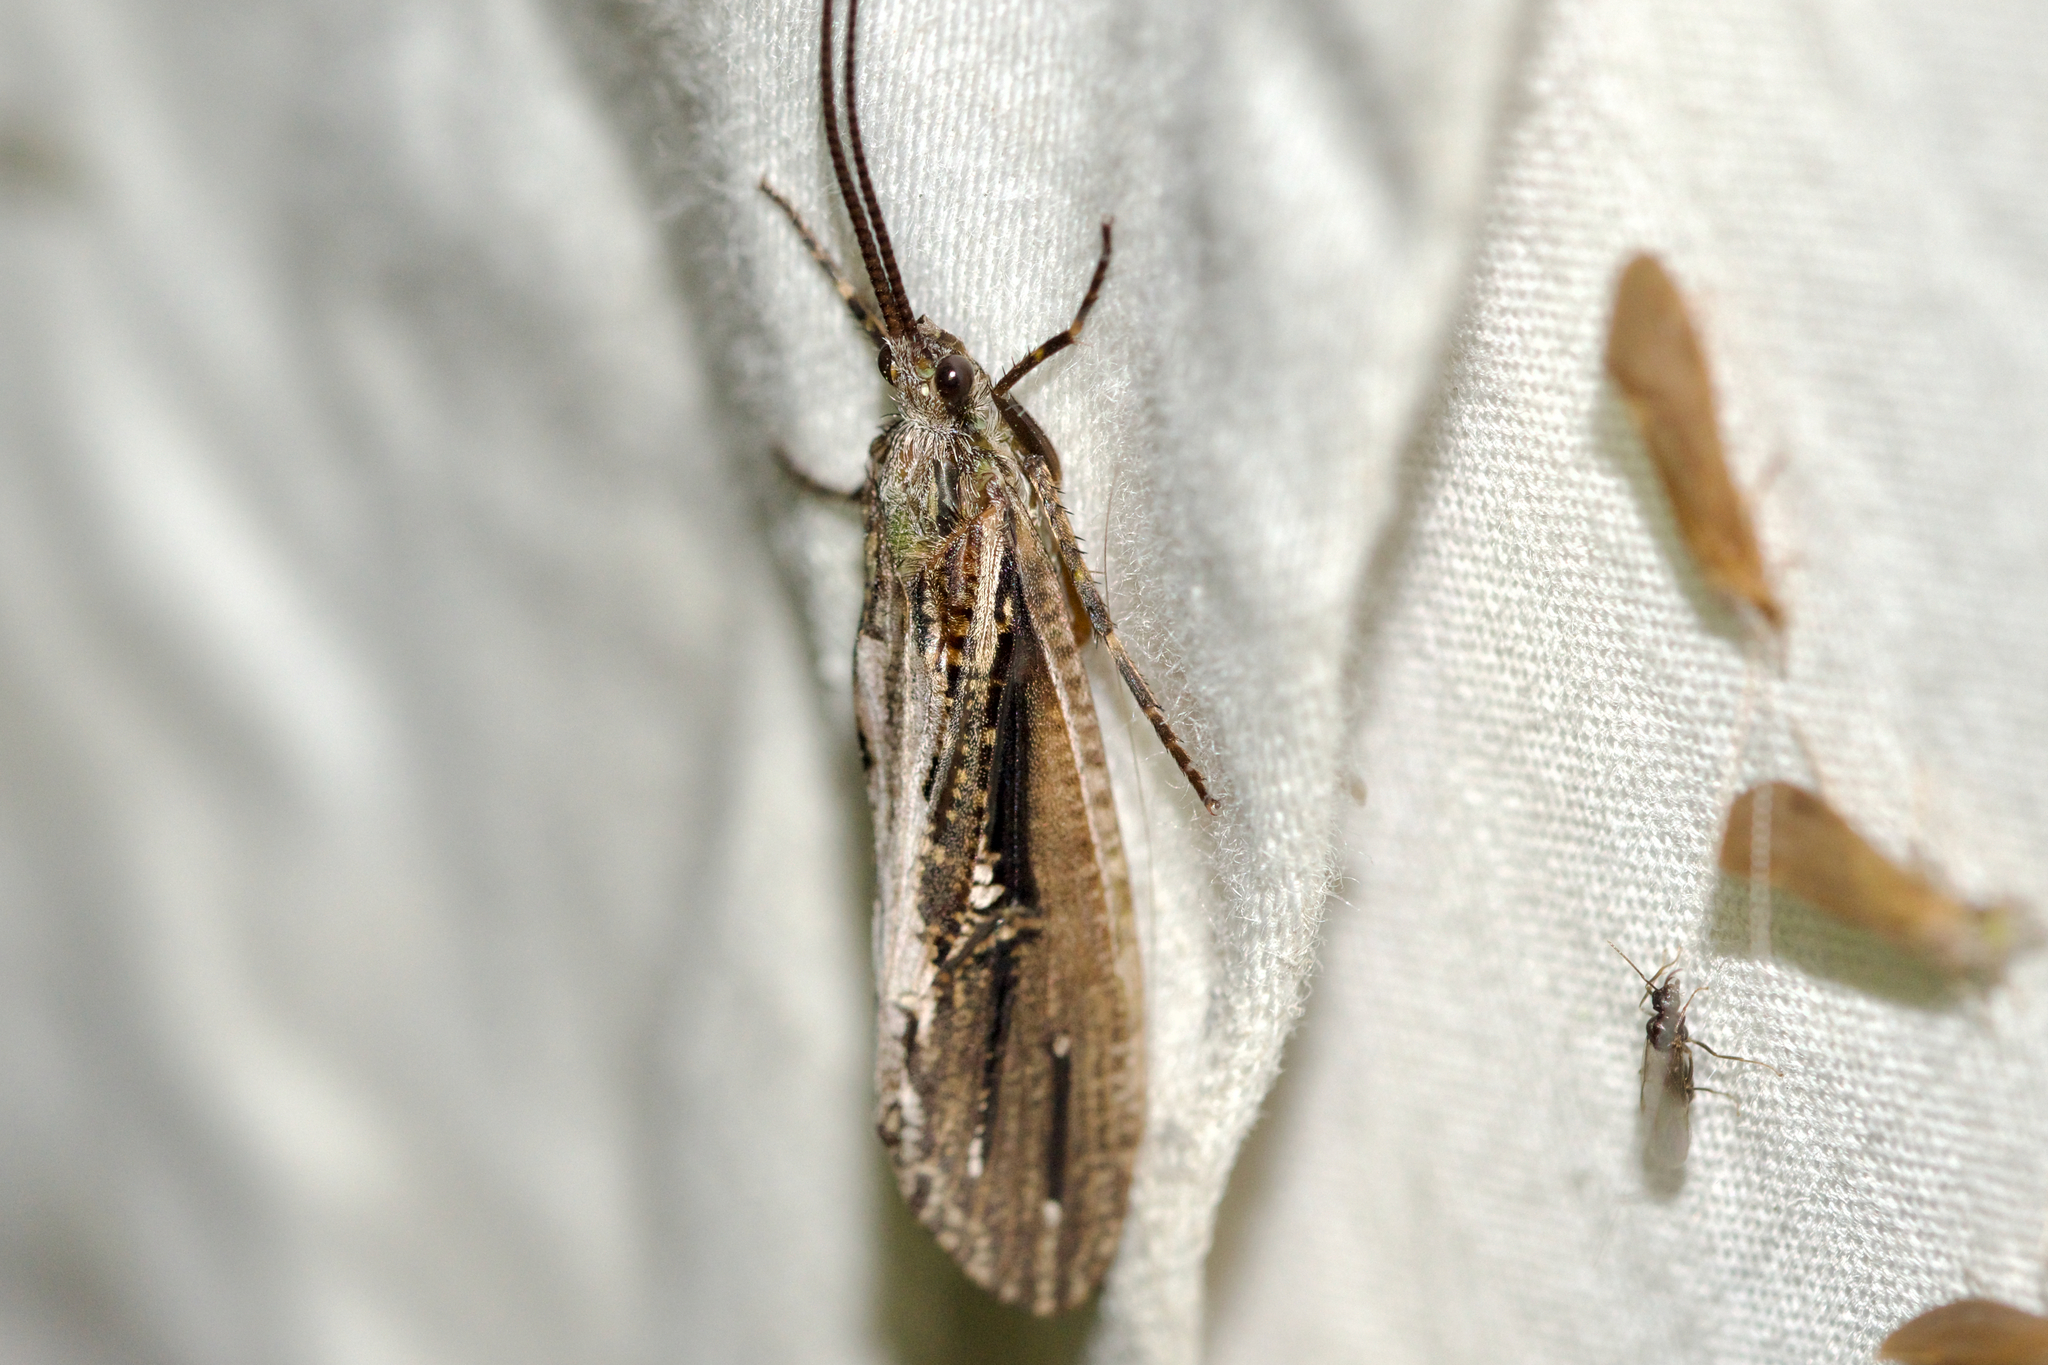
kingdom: Animalia
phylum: Arthropoda
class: Insecta
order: Trichoptera
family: Phryganeidae
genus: Phryganea
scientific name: Phryganea sayi
